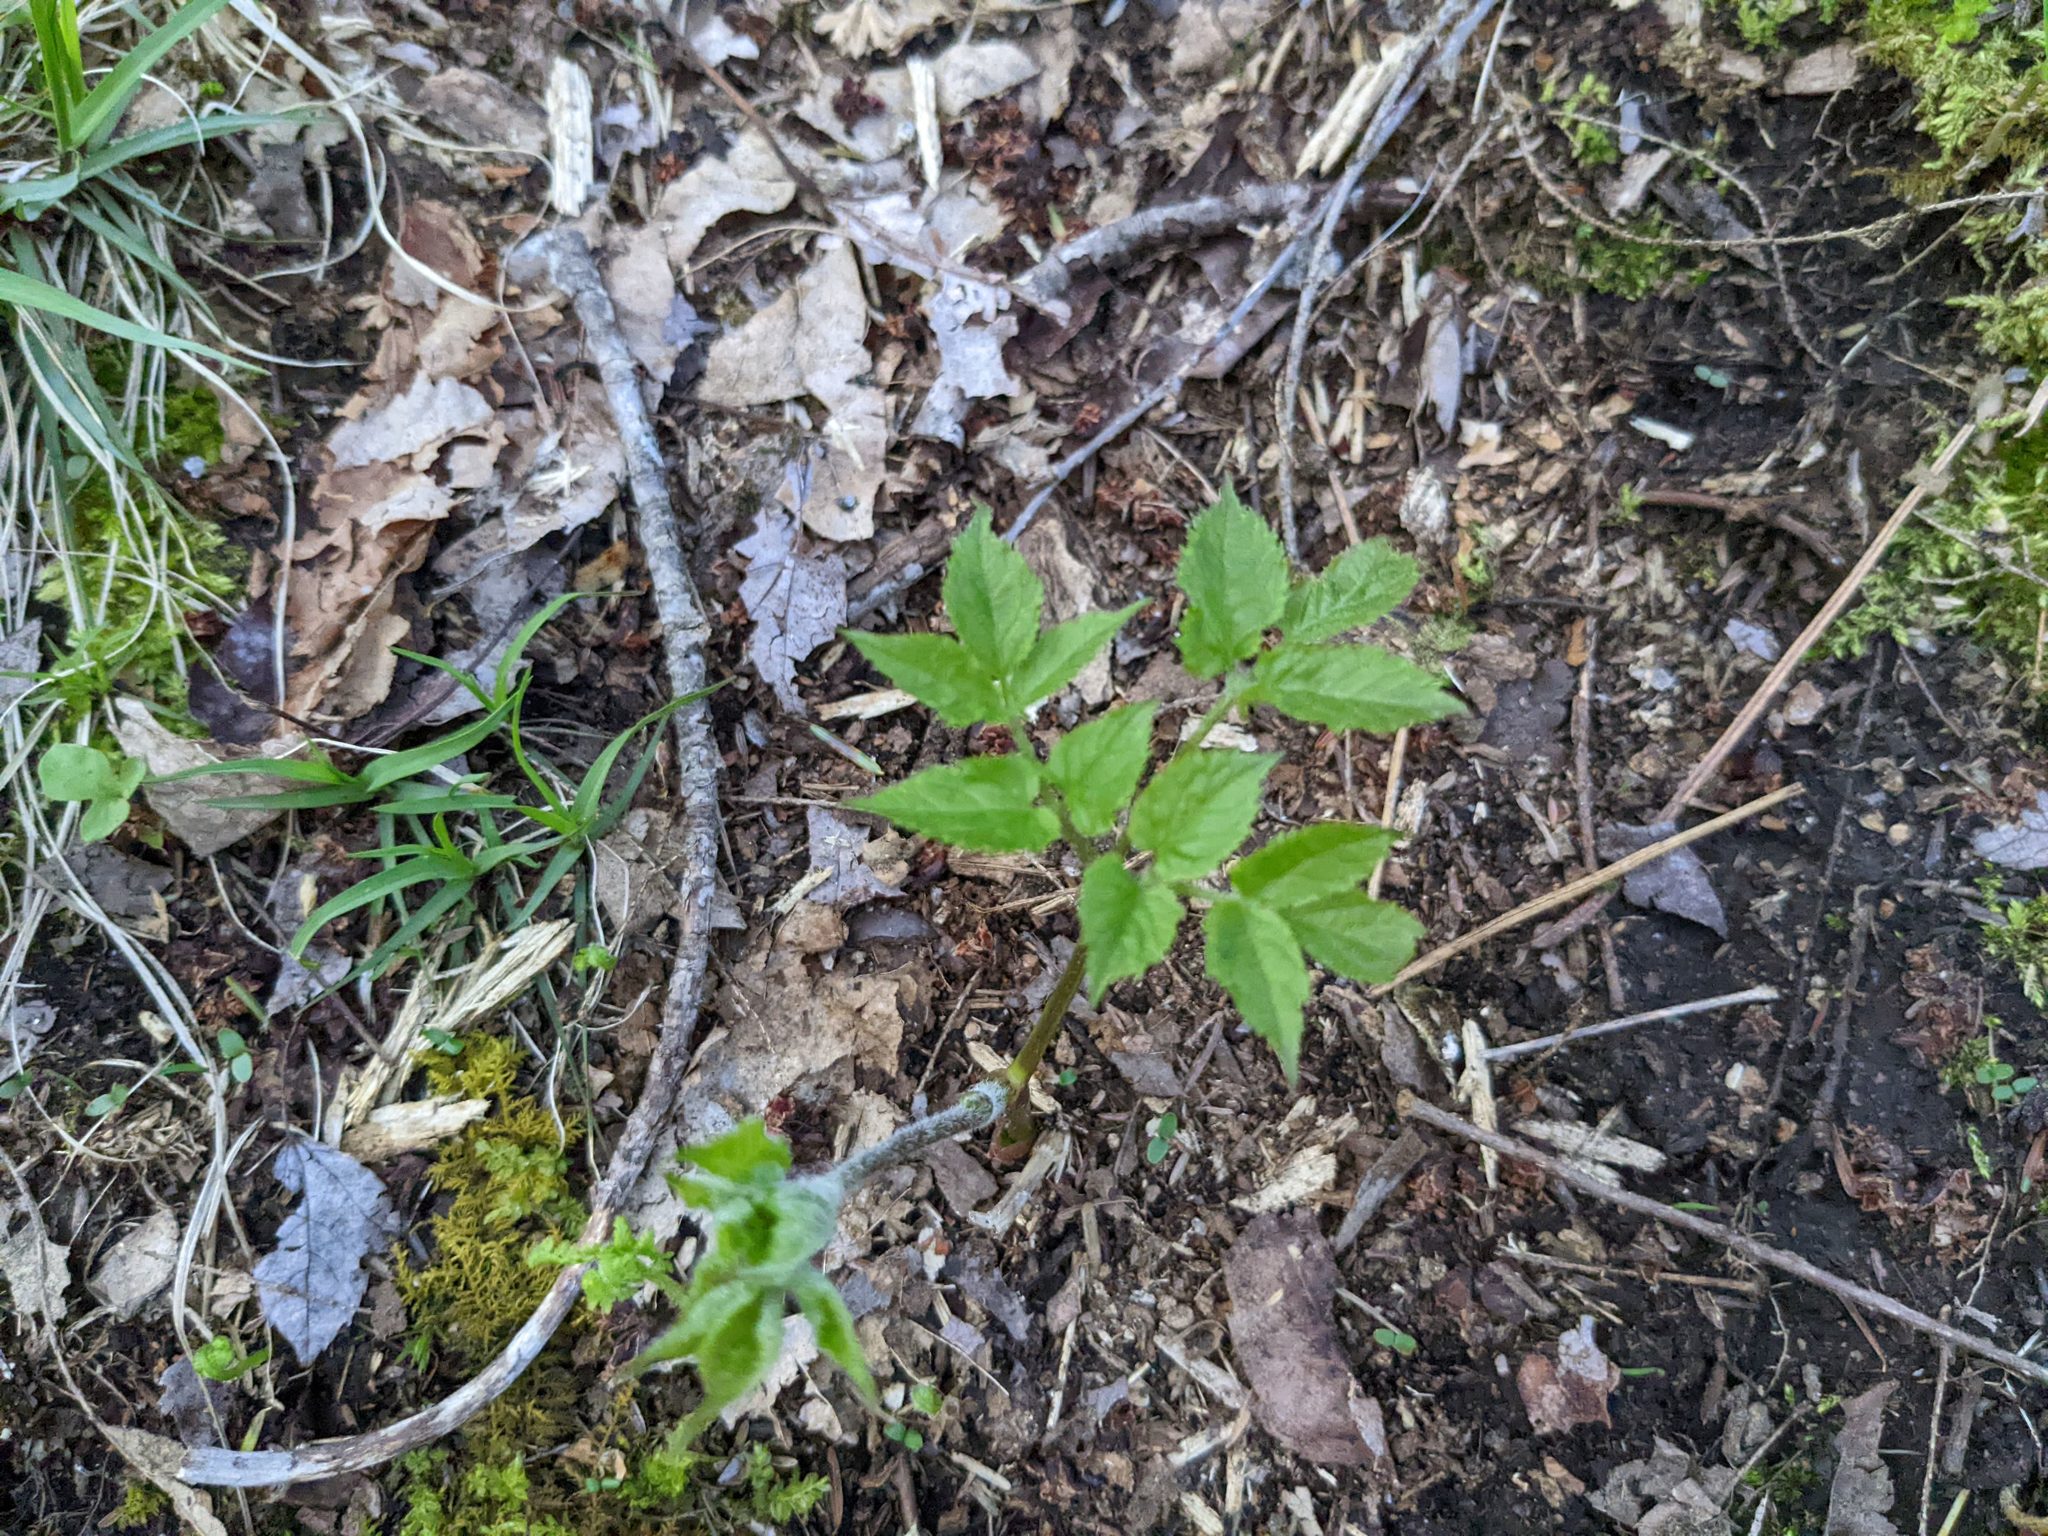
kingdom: Plantae
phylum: Tracheophyta
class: Magnoliopsida
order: Apiales
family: Apiaceae
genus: Aegopodium
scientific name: Aegopodium podagraria
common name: Ground-elder
